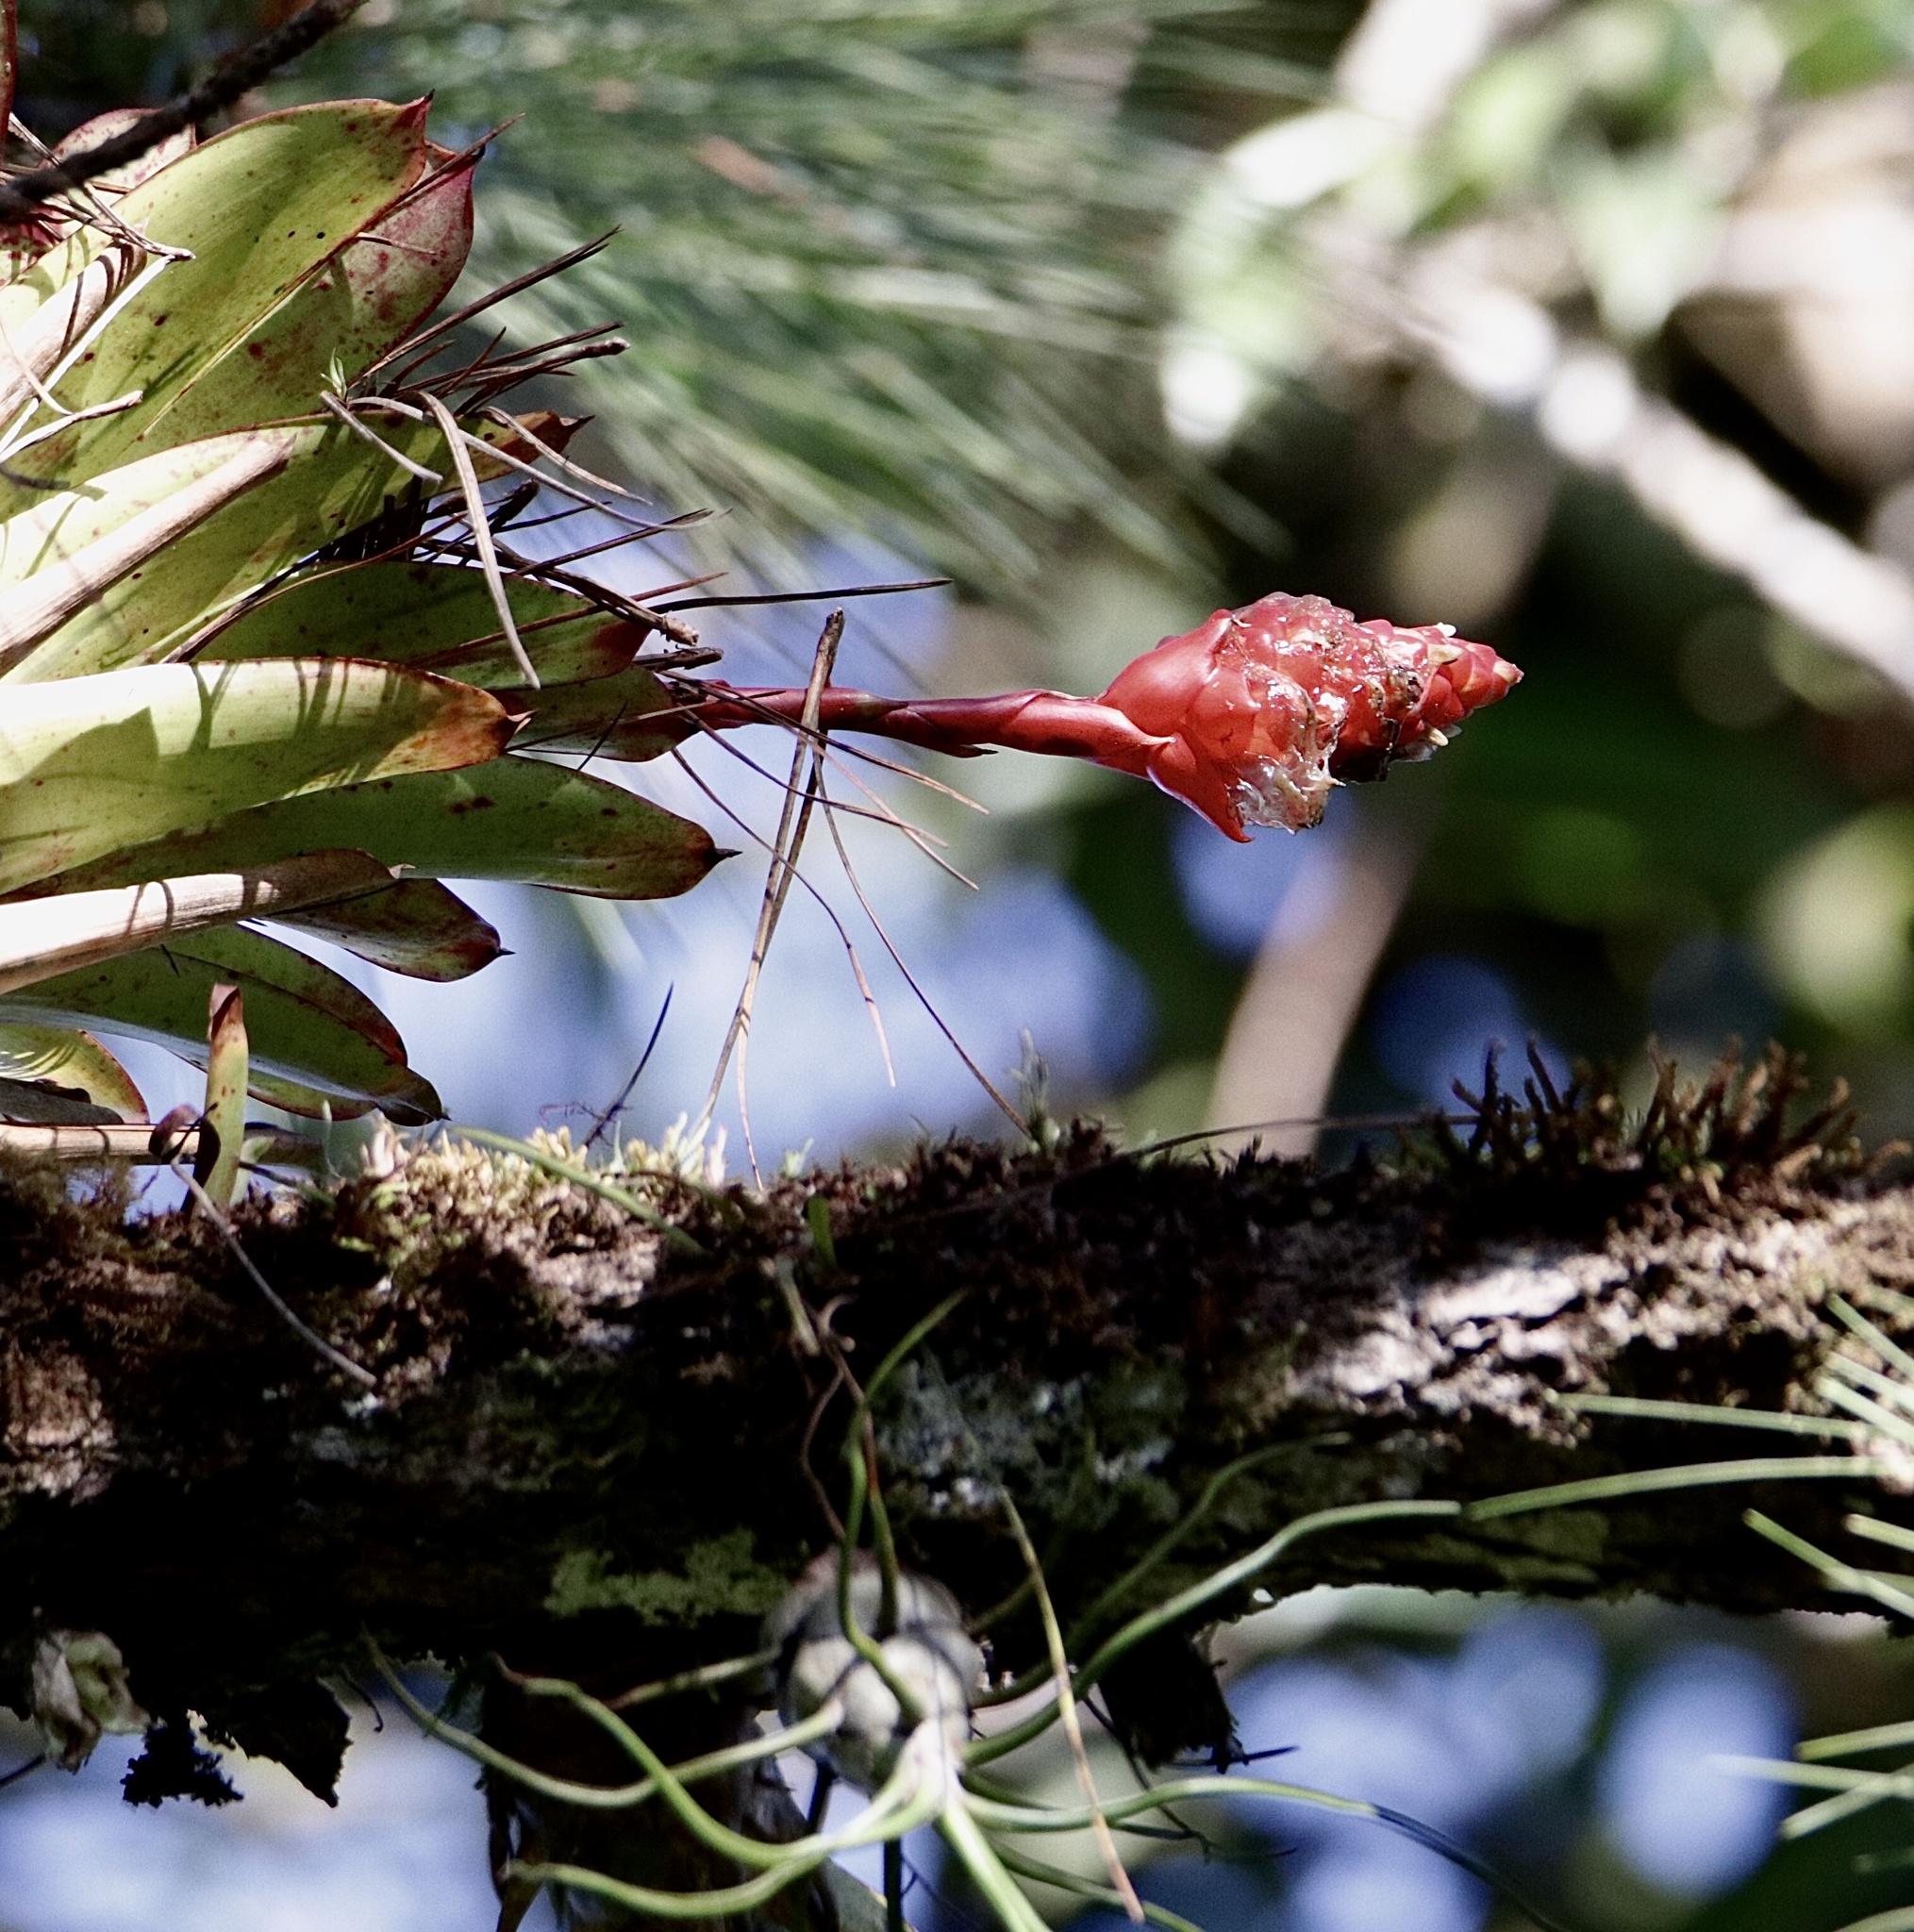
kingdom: Plantae
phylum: Tracheophyta
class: Liliopsida
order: Poales
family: Bromeliaceae
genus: Guzmania
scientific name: Guzmania elvallensis
